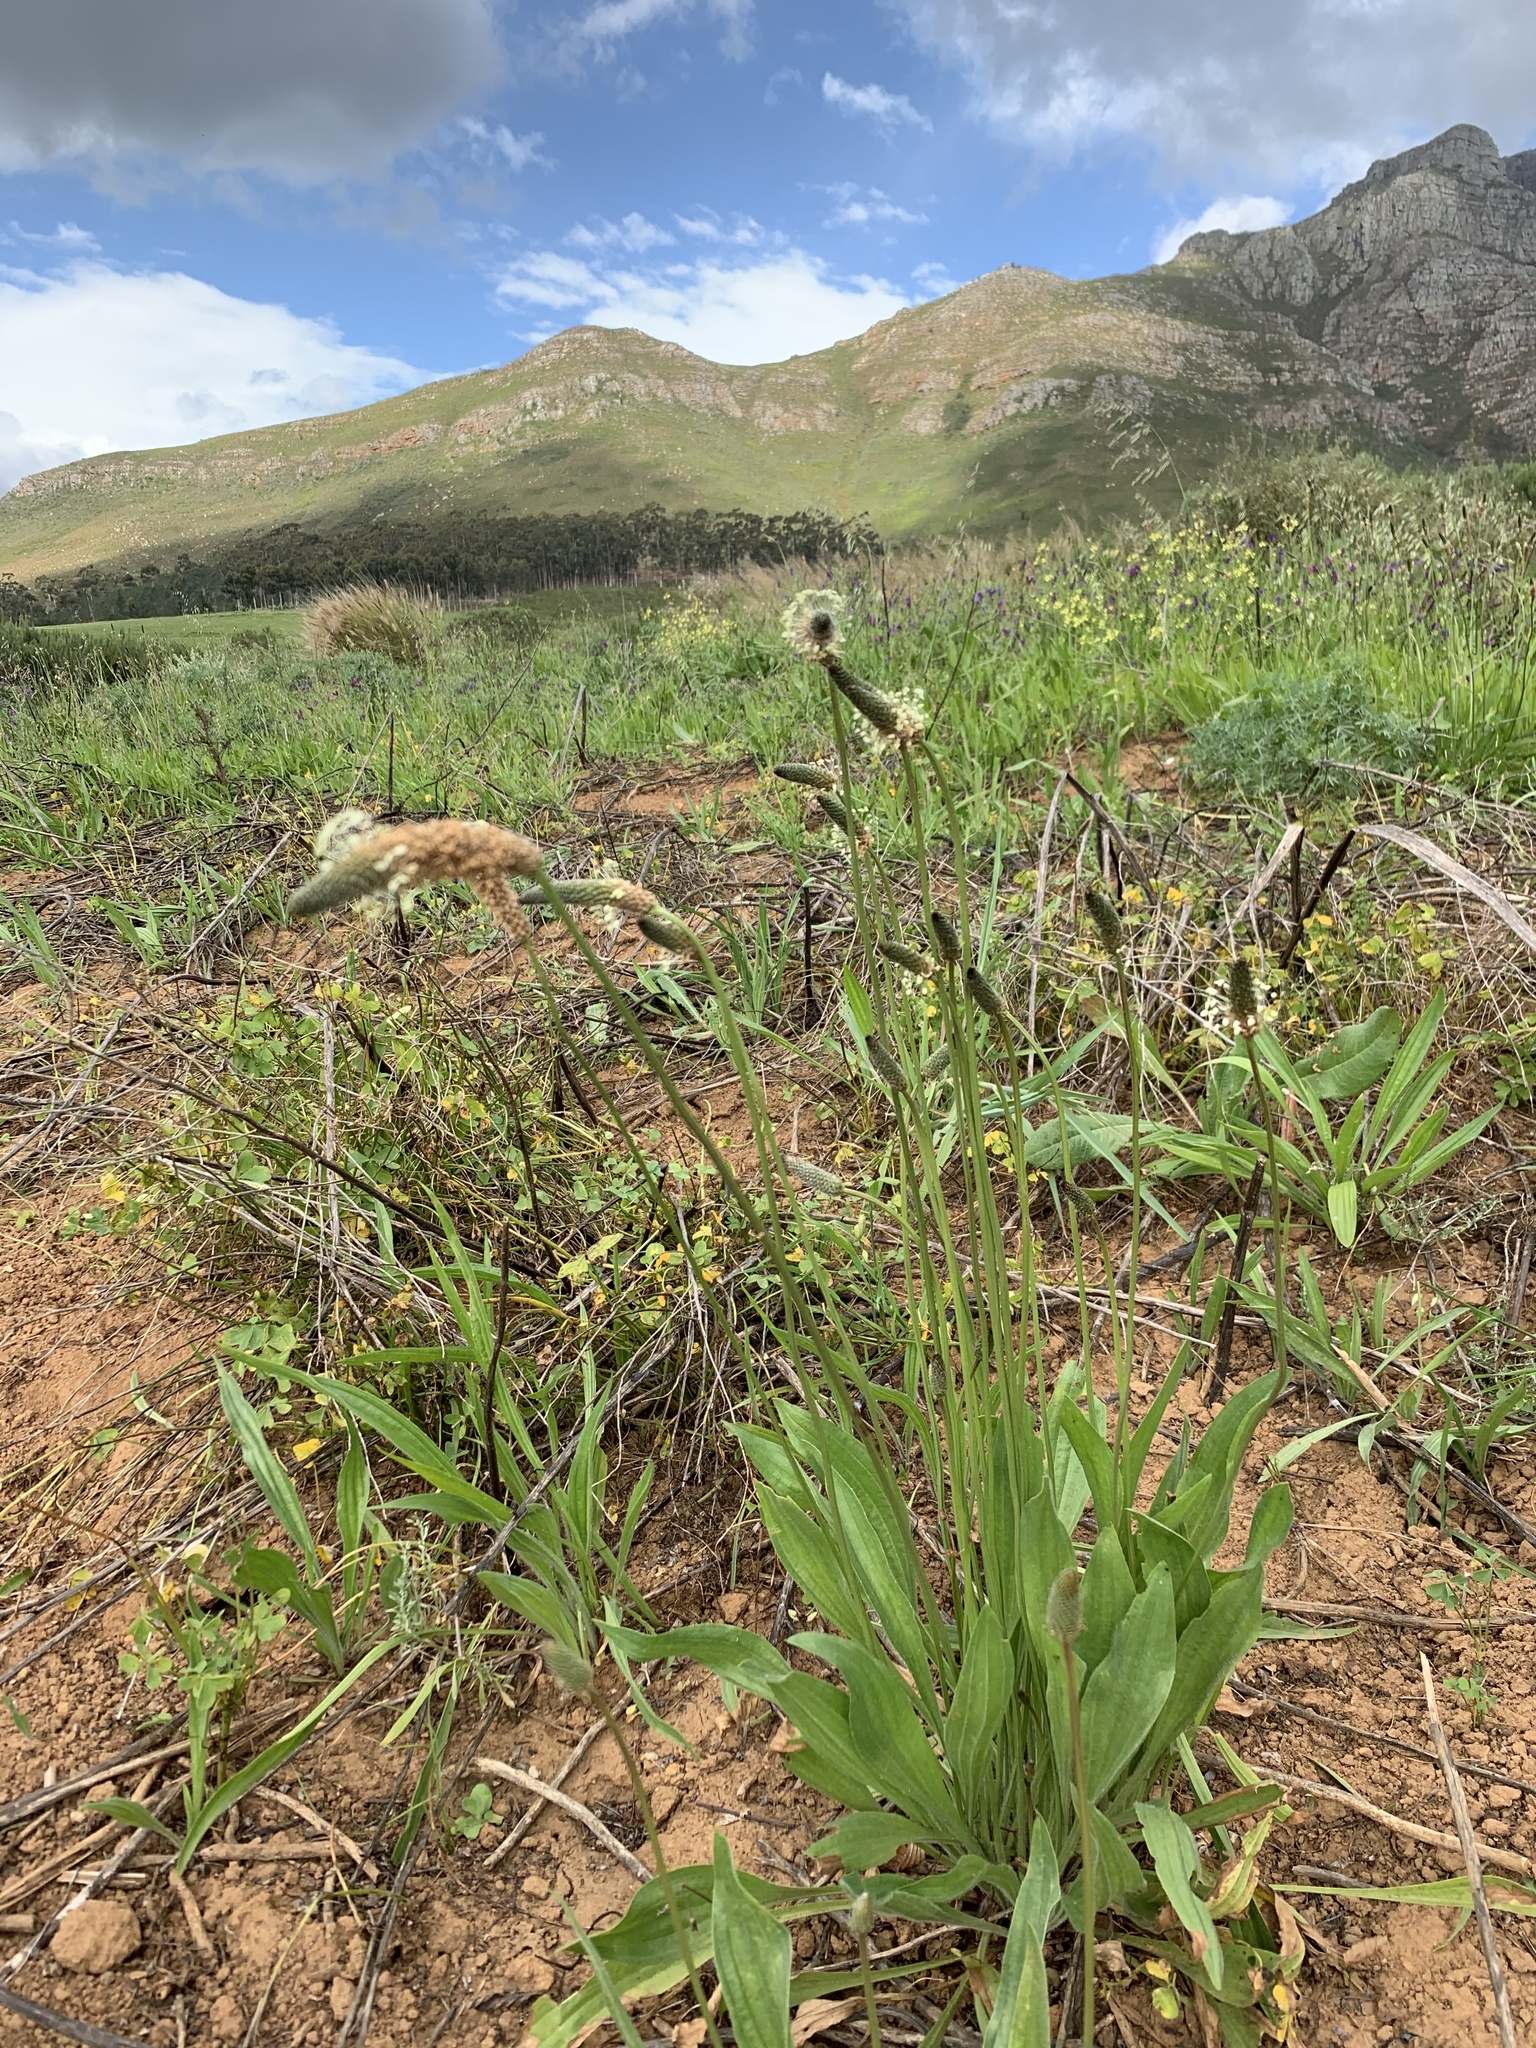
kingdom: Plantae
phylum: Tracheophyta
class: Magnoliopsida
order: Lamiales
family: Plantaginaceae
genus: Plantago
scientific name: Plantago lanceolata
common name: Ribwort plantain
